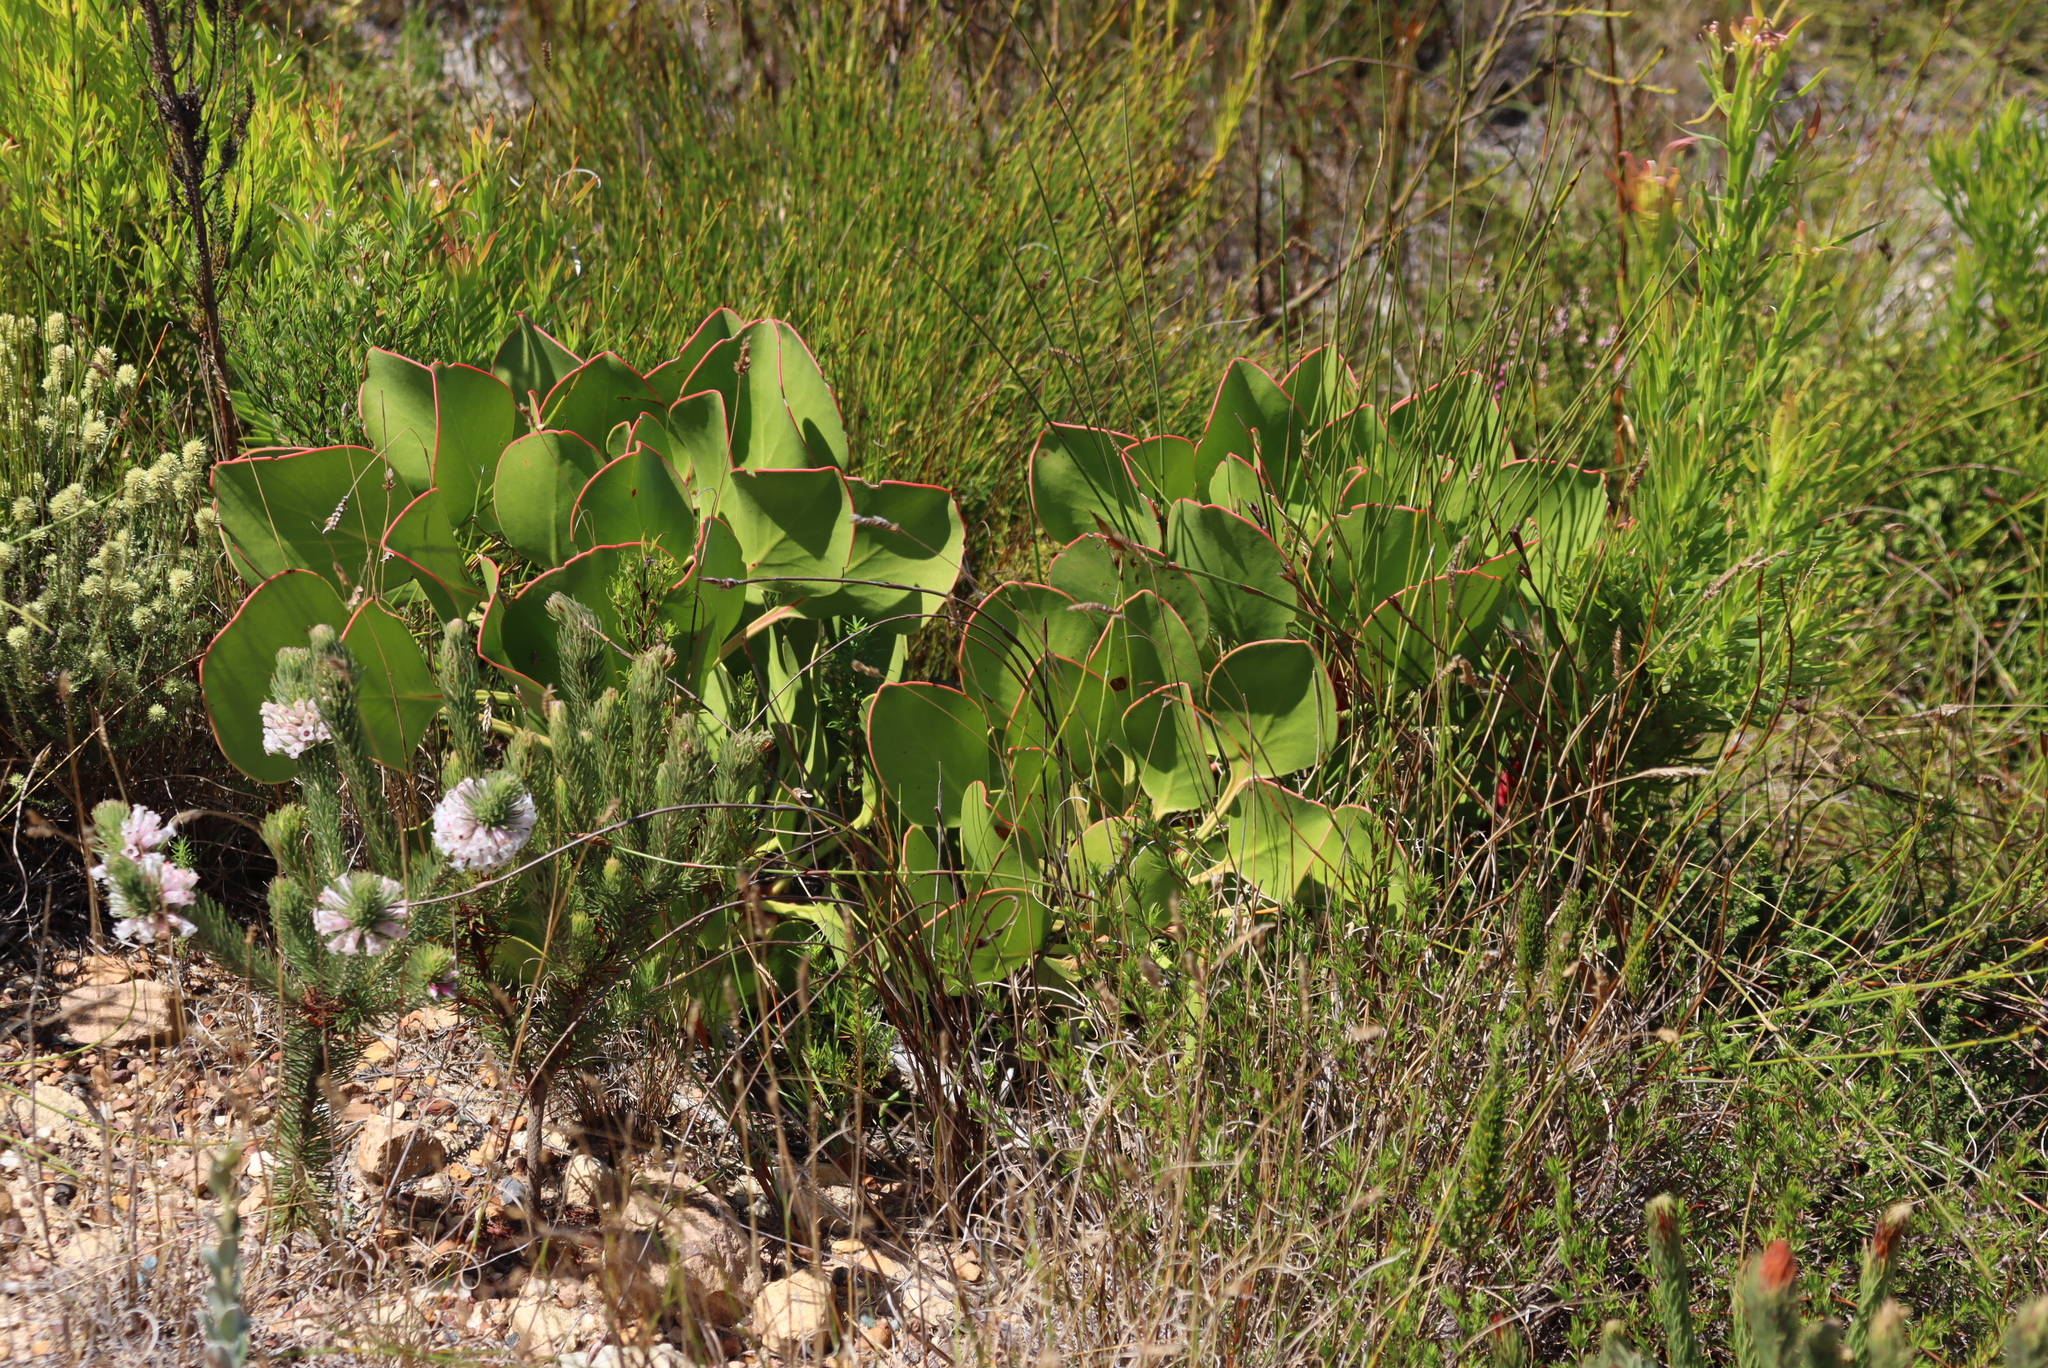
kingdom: Plantae
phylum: Tracheophyta
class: Magnoliopsida
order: Proteales
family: Proteaceae
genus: Protea
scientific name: Protea cordata
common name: Heart-leaf sugarbush
